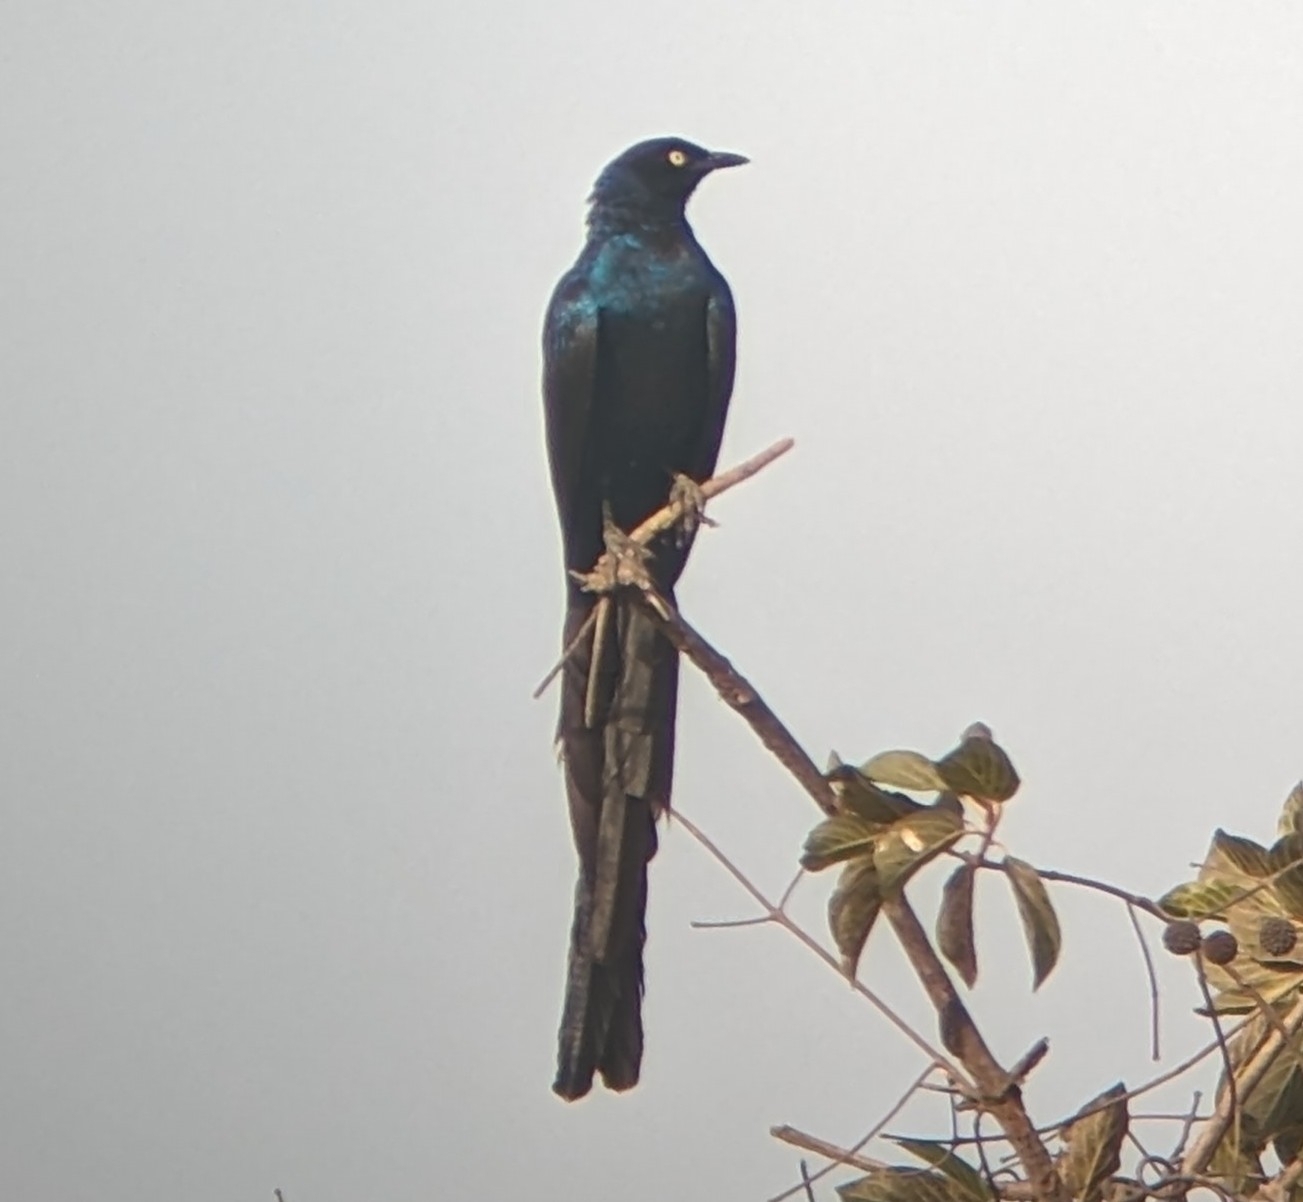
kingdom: Animalia
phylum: Chordata
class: Aves
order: Passeriformes
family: Sturnidae
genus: Lamprotornis
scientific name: Lamprotornis caudatus
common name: Long-tailed glossy starling
